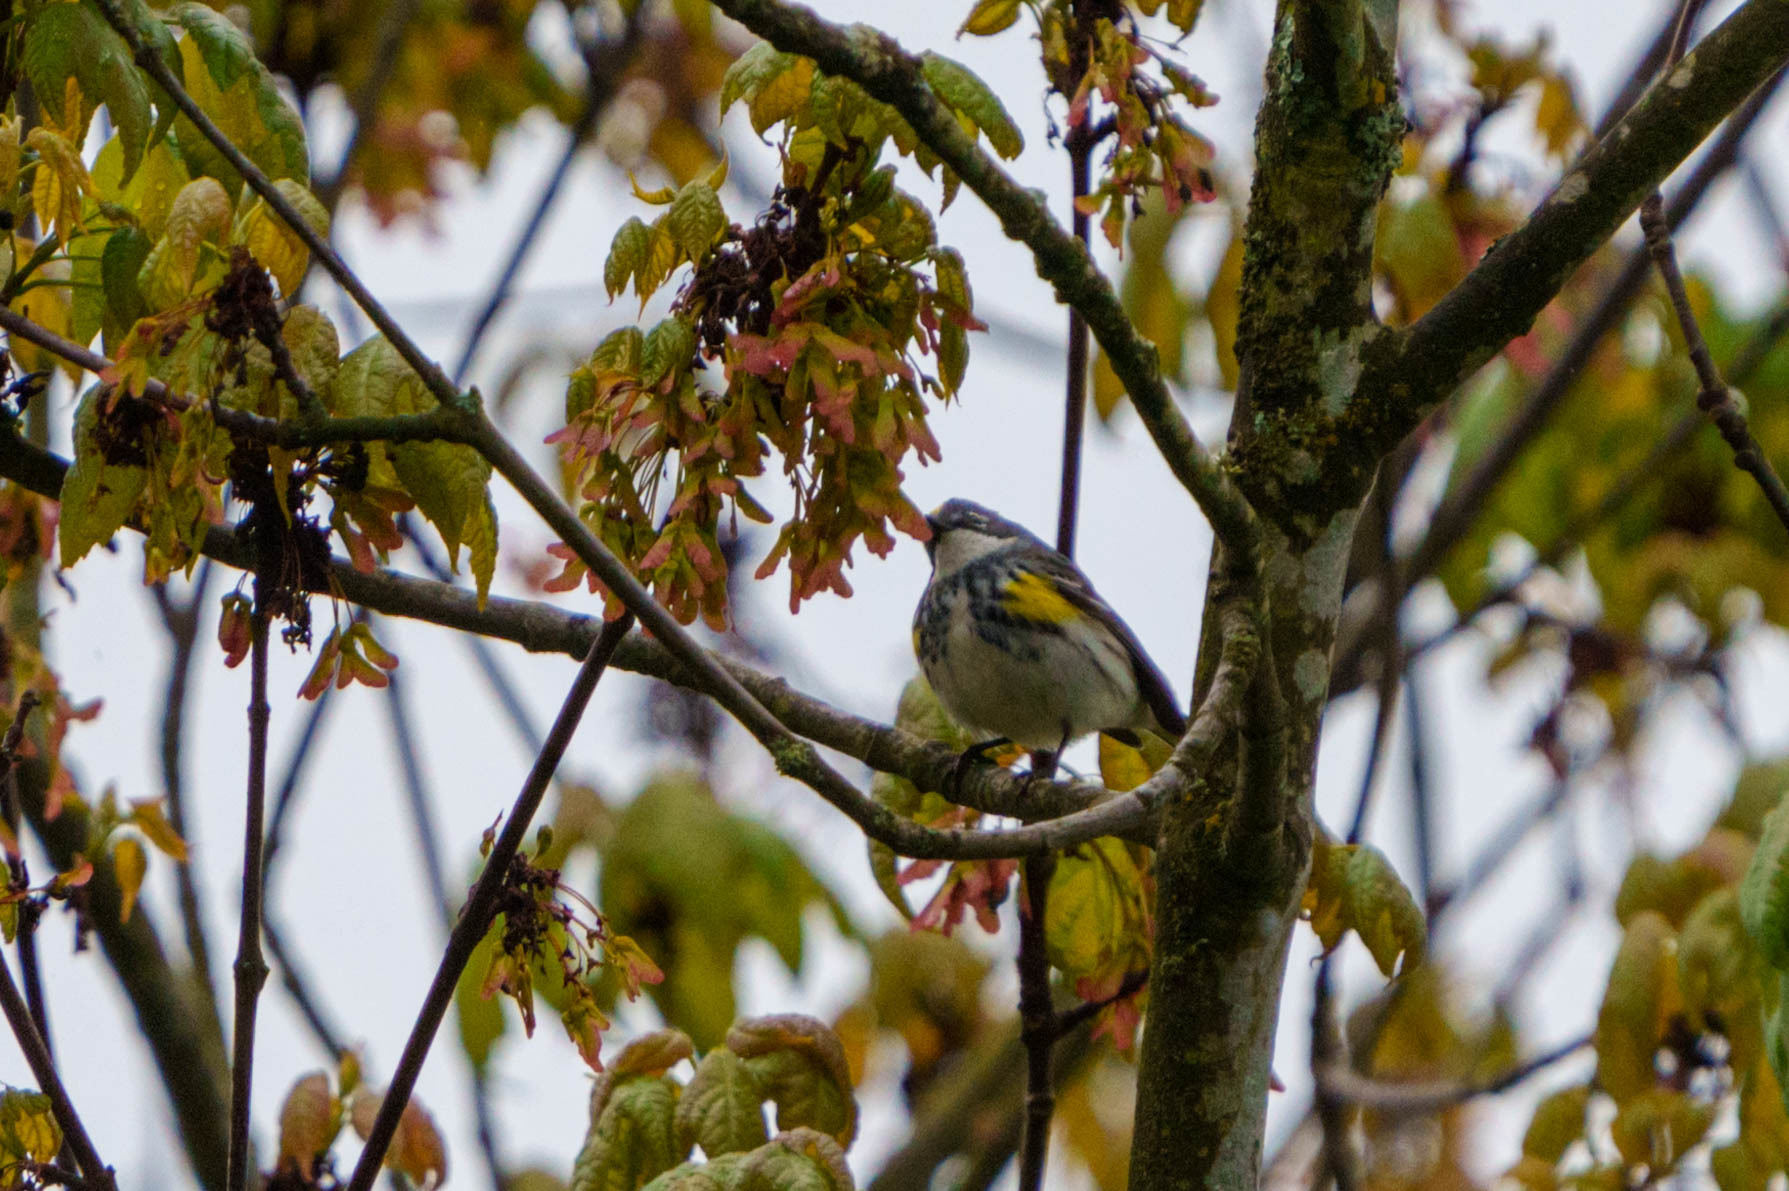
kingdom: Animalia
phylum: Chordata
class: Aves
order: Passeriformes
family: Parulidae
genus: Setophaga
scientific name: Setophaga coronata
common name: Myrtle warbler
